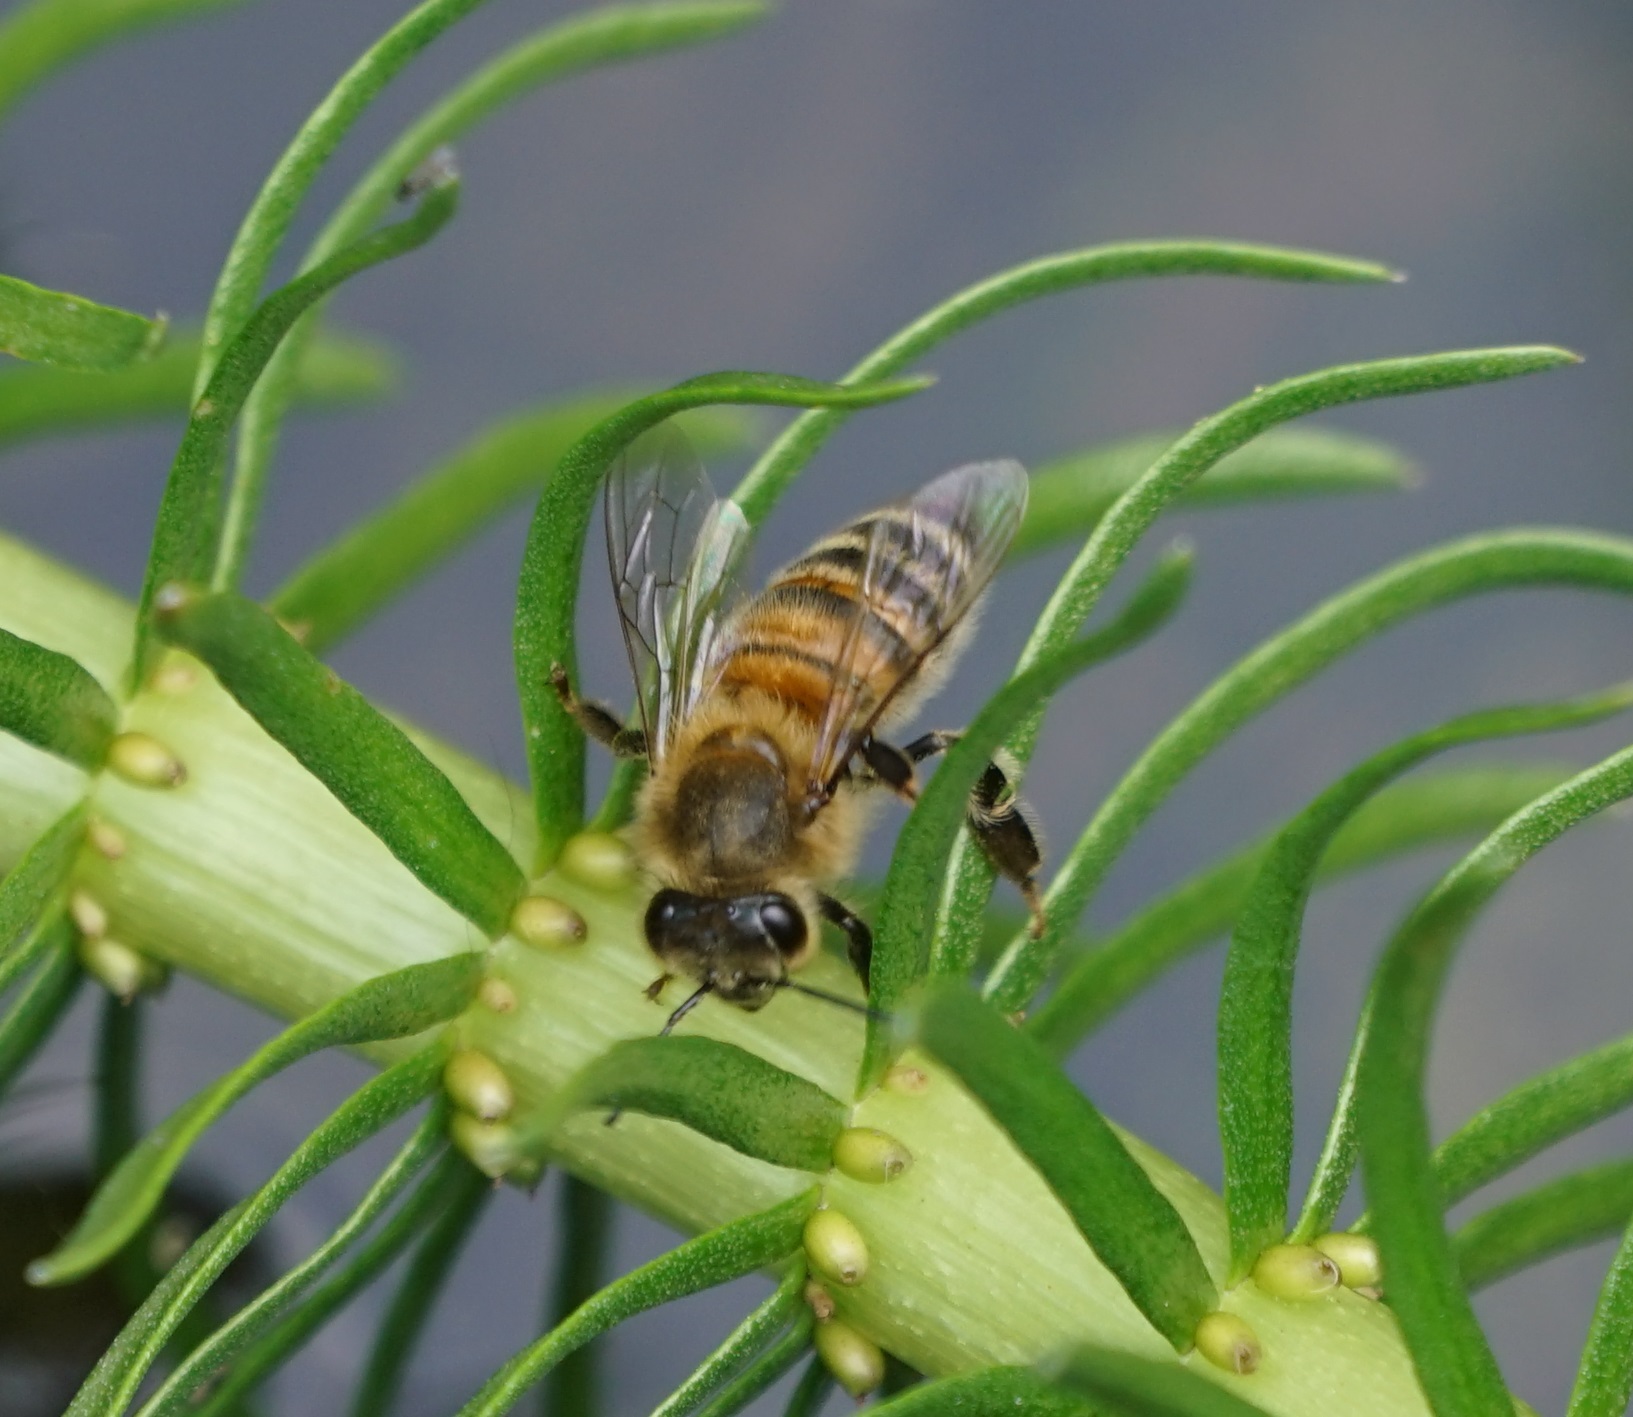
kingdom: Animalia
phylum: Arthropoda
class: Insecta
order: Hymenoptera
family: Apidae
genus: Apis
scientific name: Apis mellifera
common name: Honey bee
